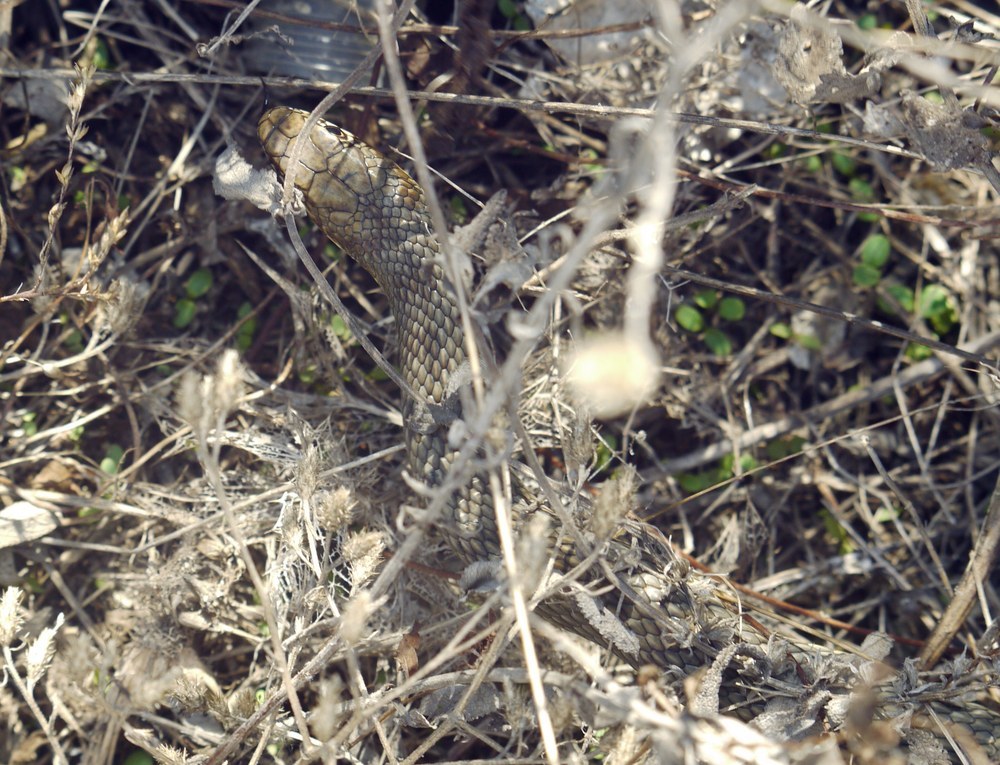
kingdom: Animalia
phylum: Chordata
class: Squamata
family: Colubridae
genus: Dolichophis
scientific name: Dolichophis caspius
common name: Large whip snake
